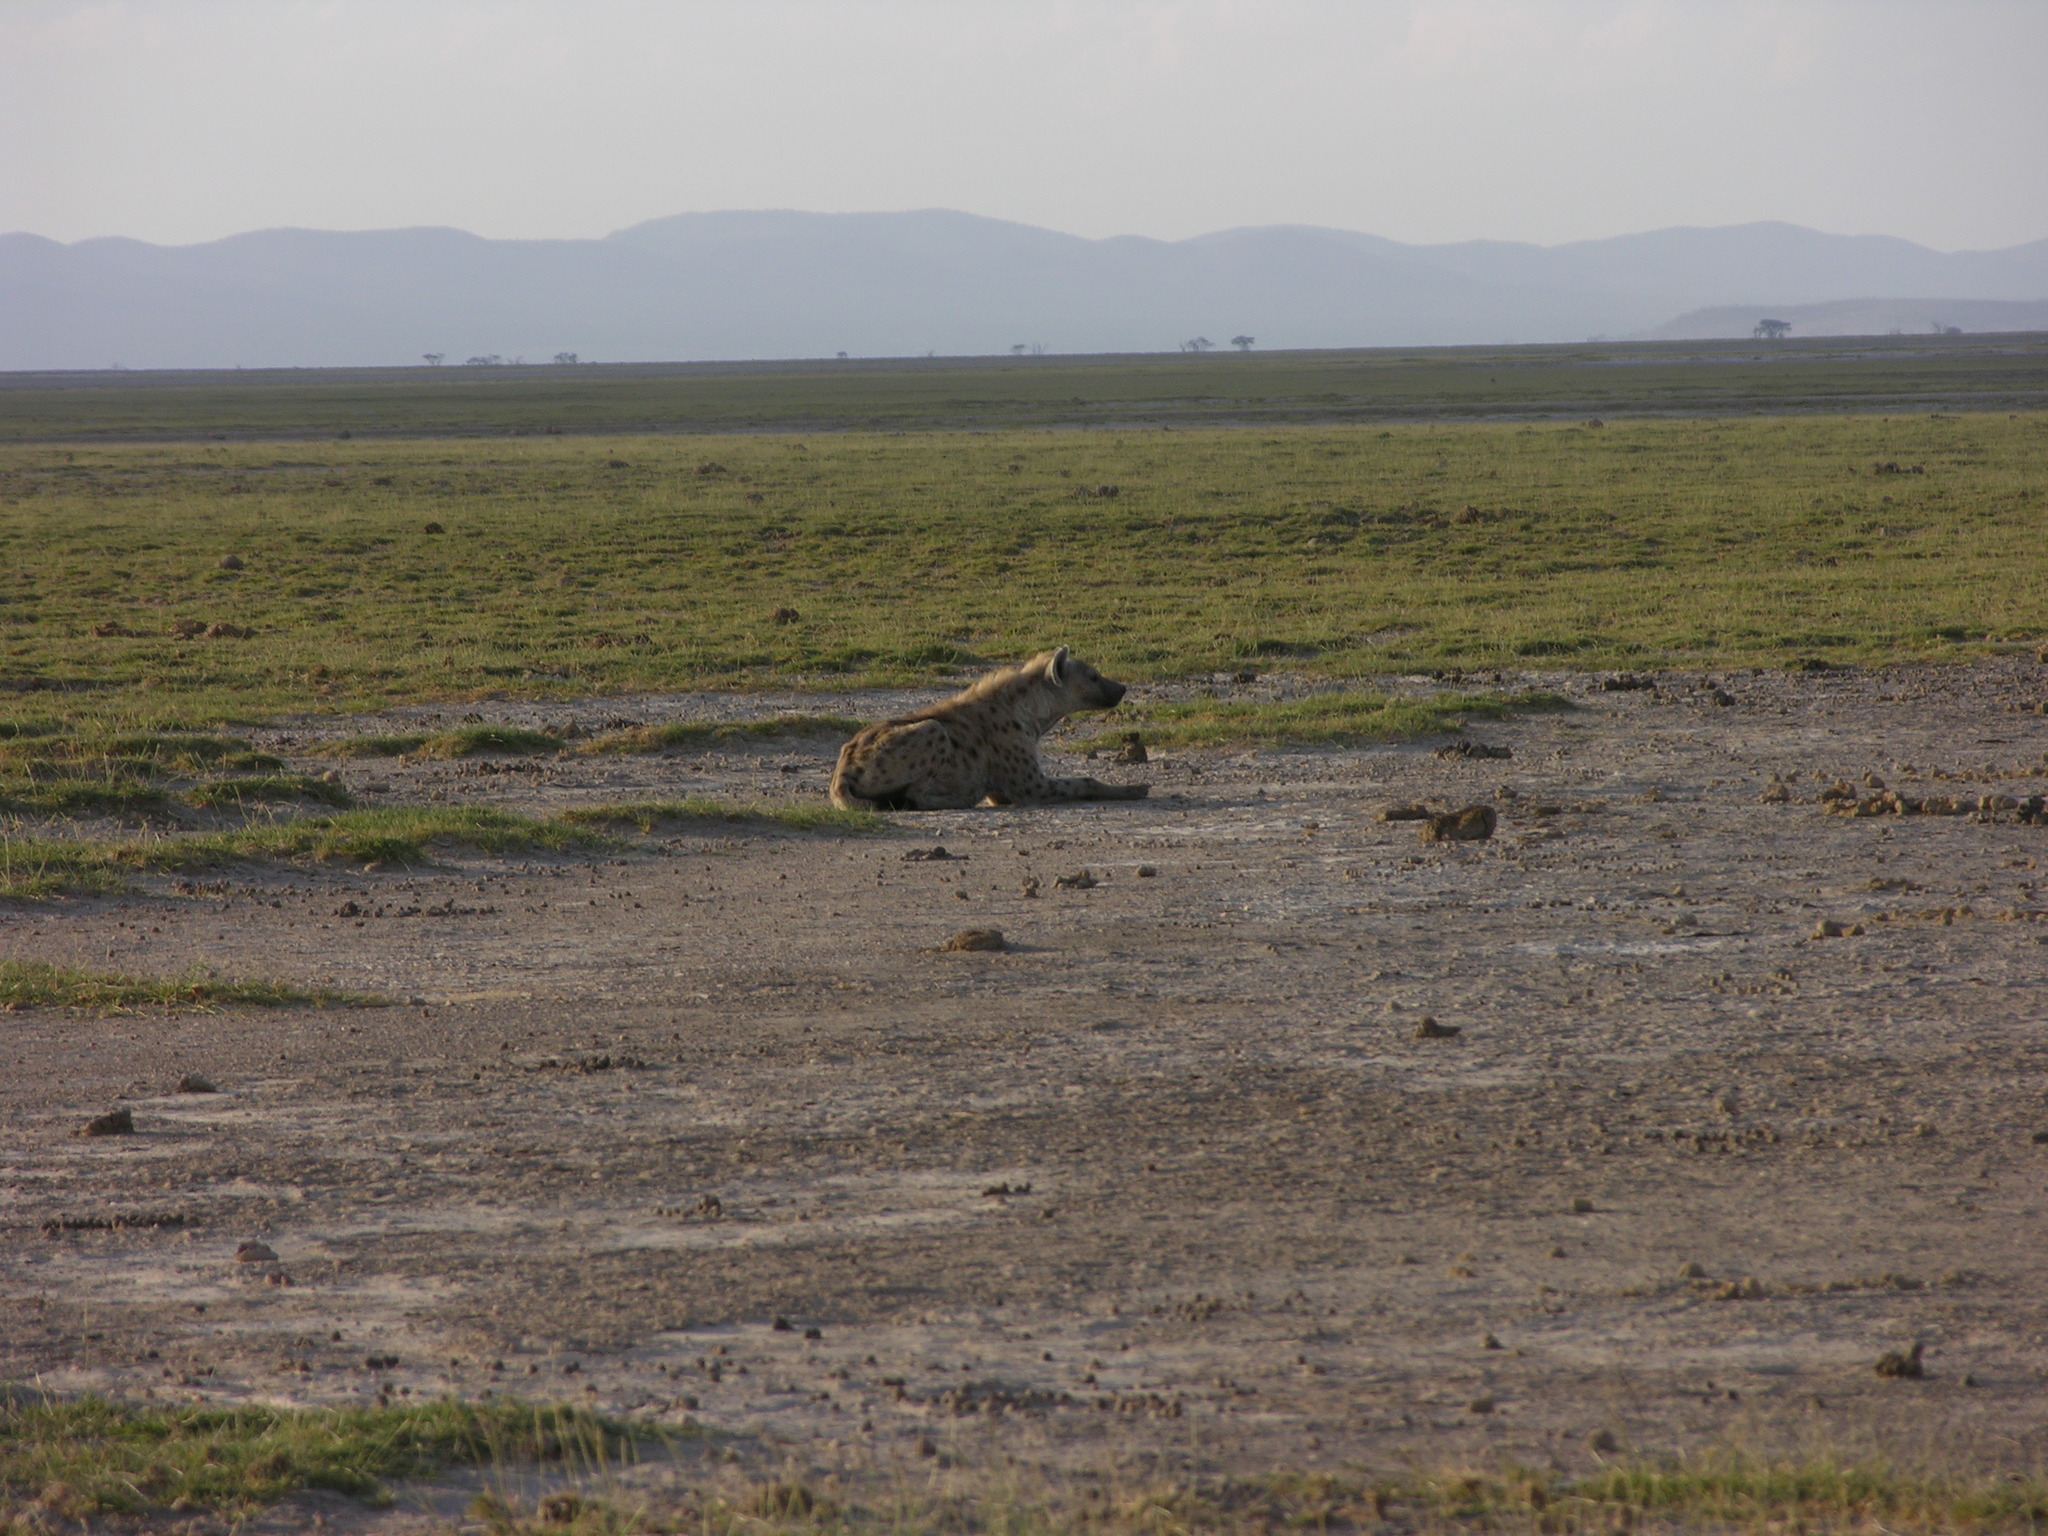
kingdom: Animalia
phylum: Chordata
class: Mammalia
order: Carnivora
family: Hyaenidae
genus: Crocuta
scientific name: Crocuta crocuta
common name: Spotted hyaena
